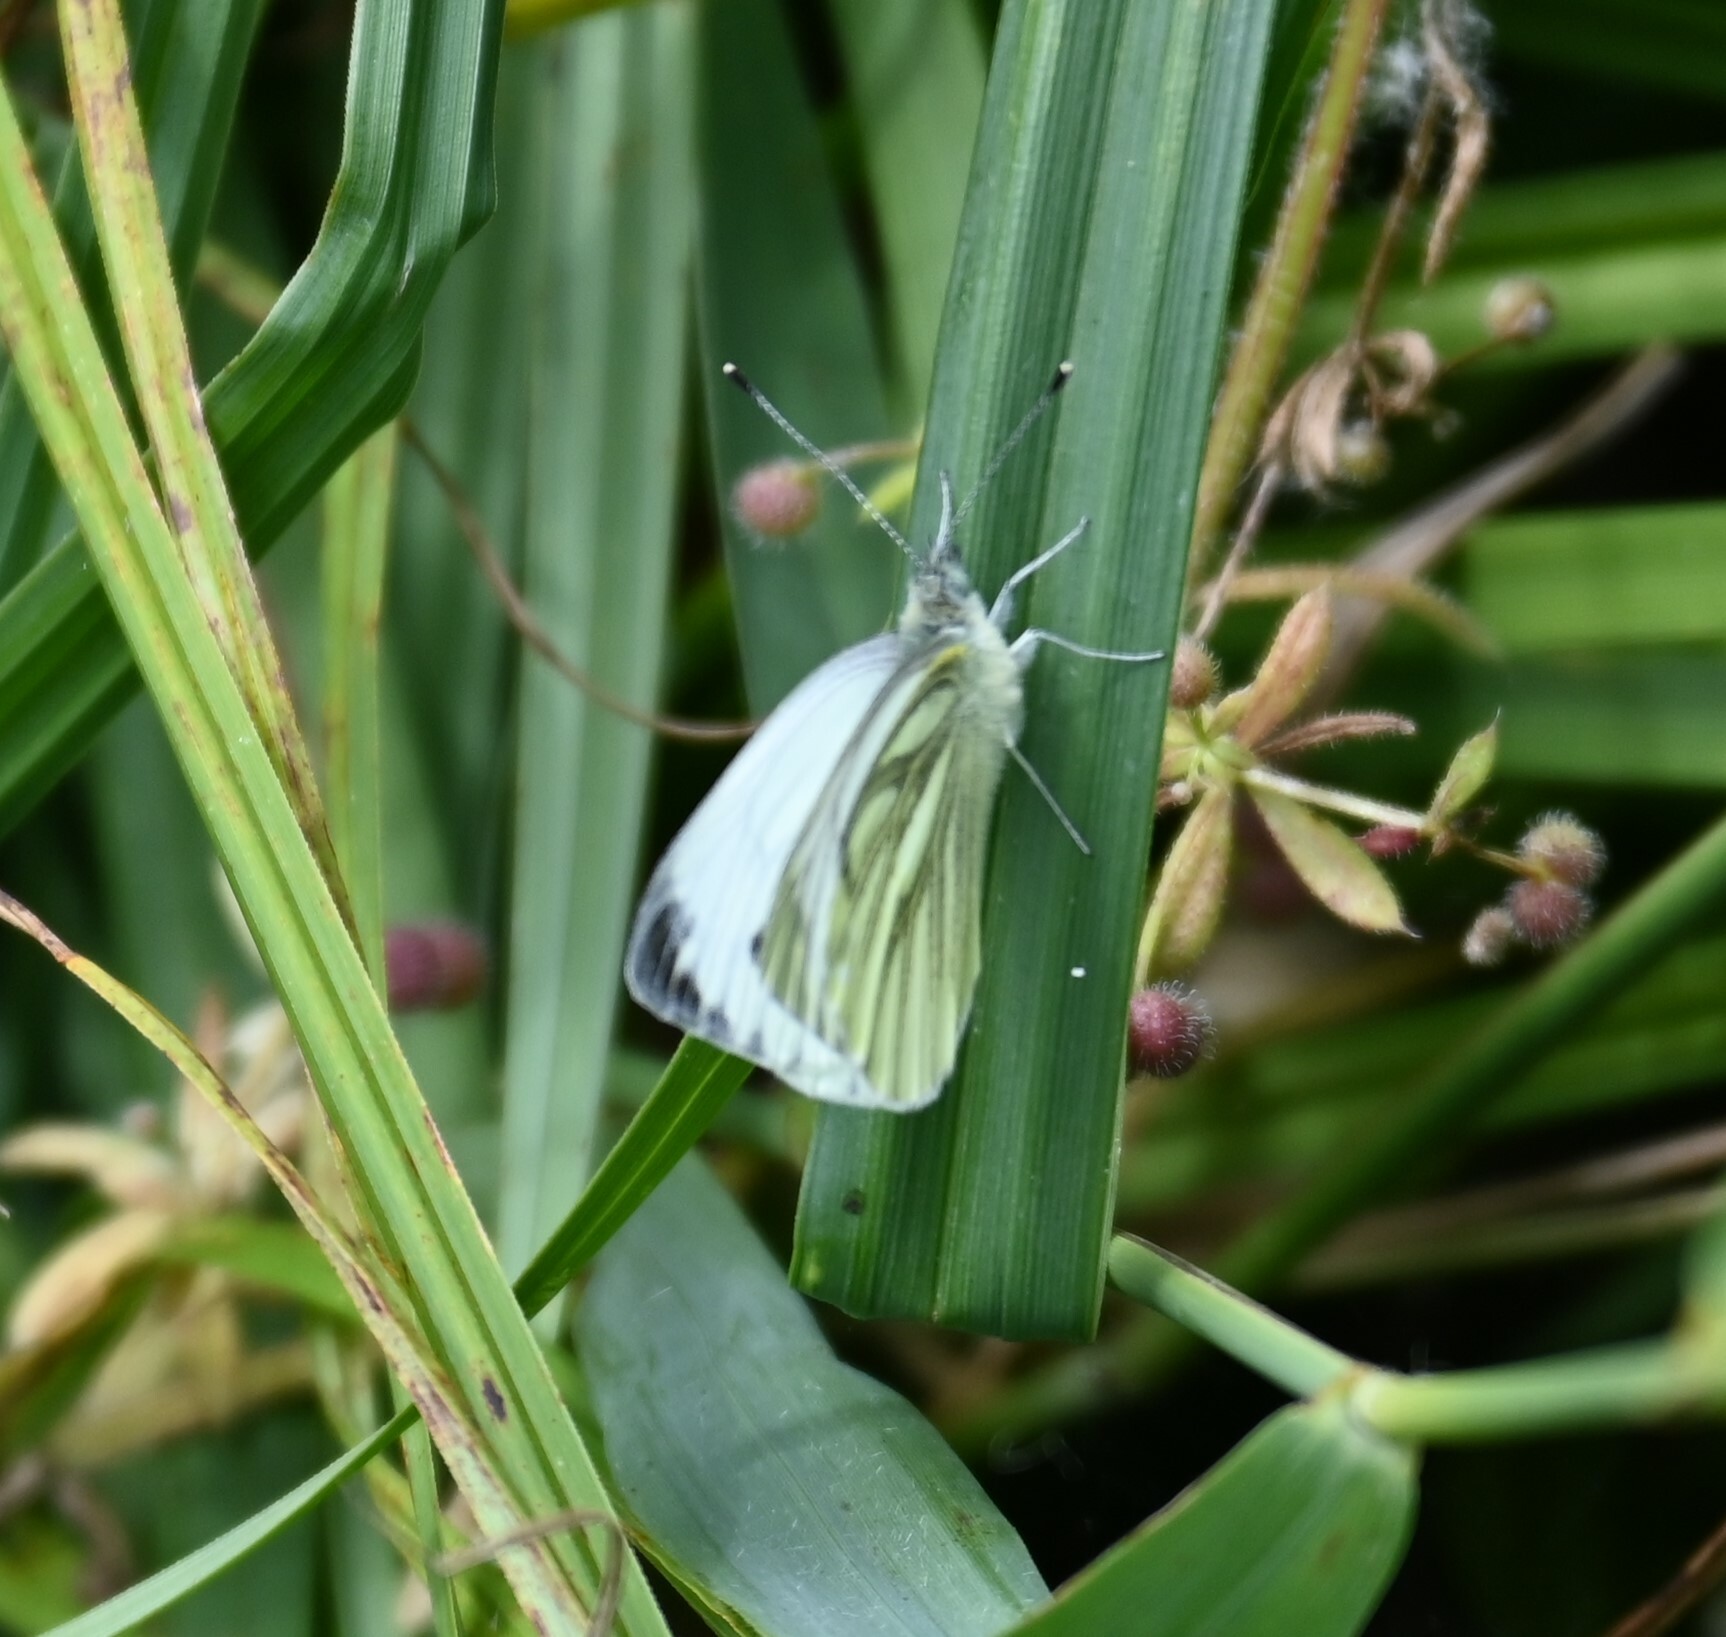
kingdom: Animalia
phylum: Arthropoda
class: Insecta
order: Lepidoptera
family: Pieridae
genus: Pieris
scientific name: Pieris napi
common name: Green-veined white
